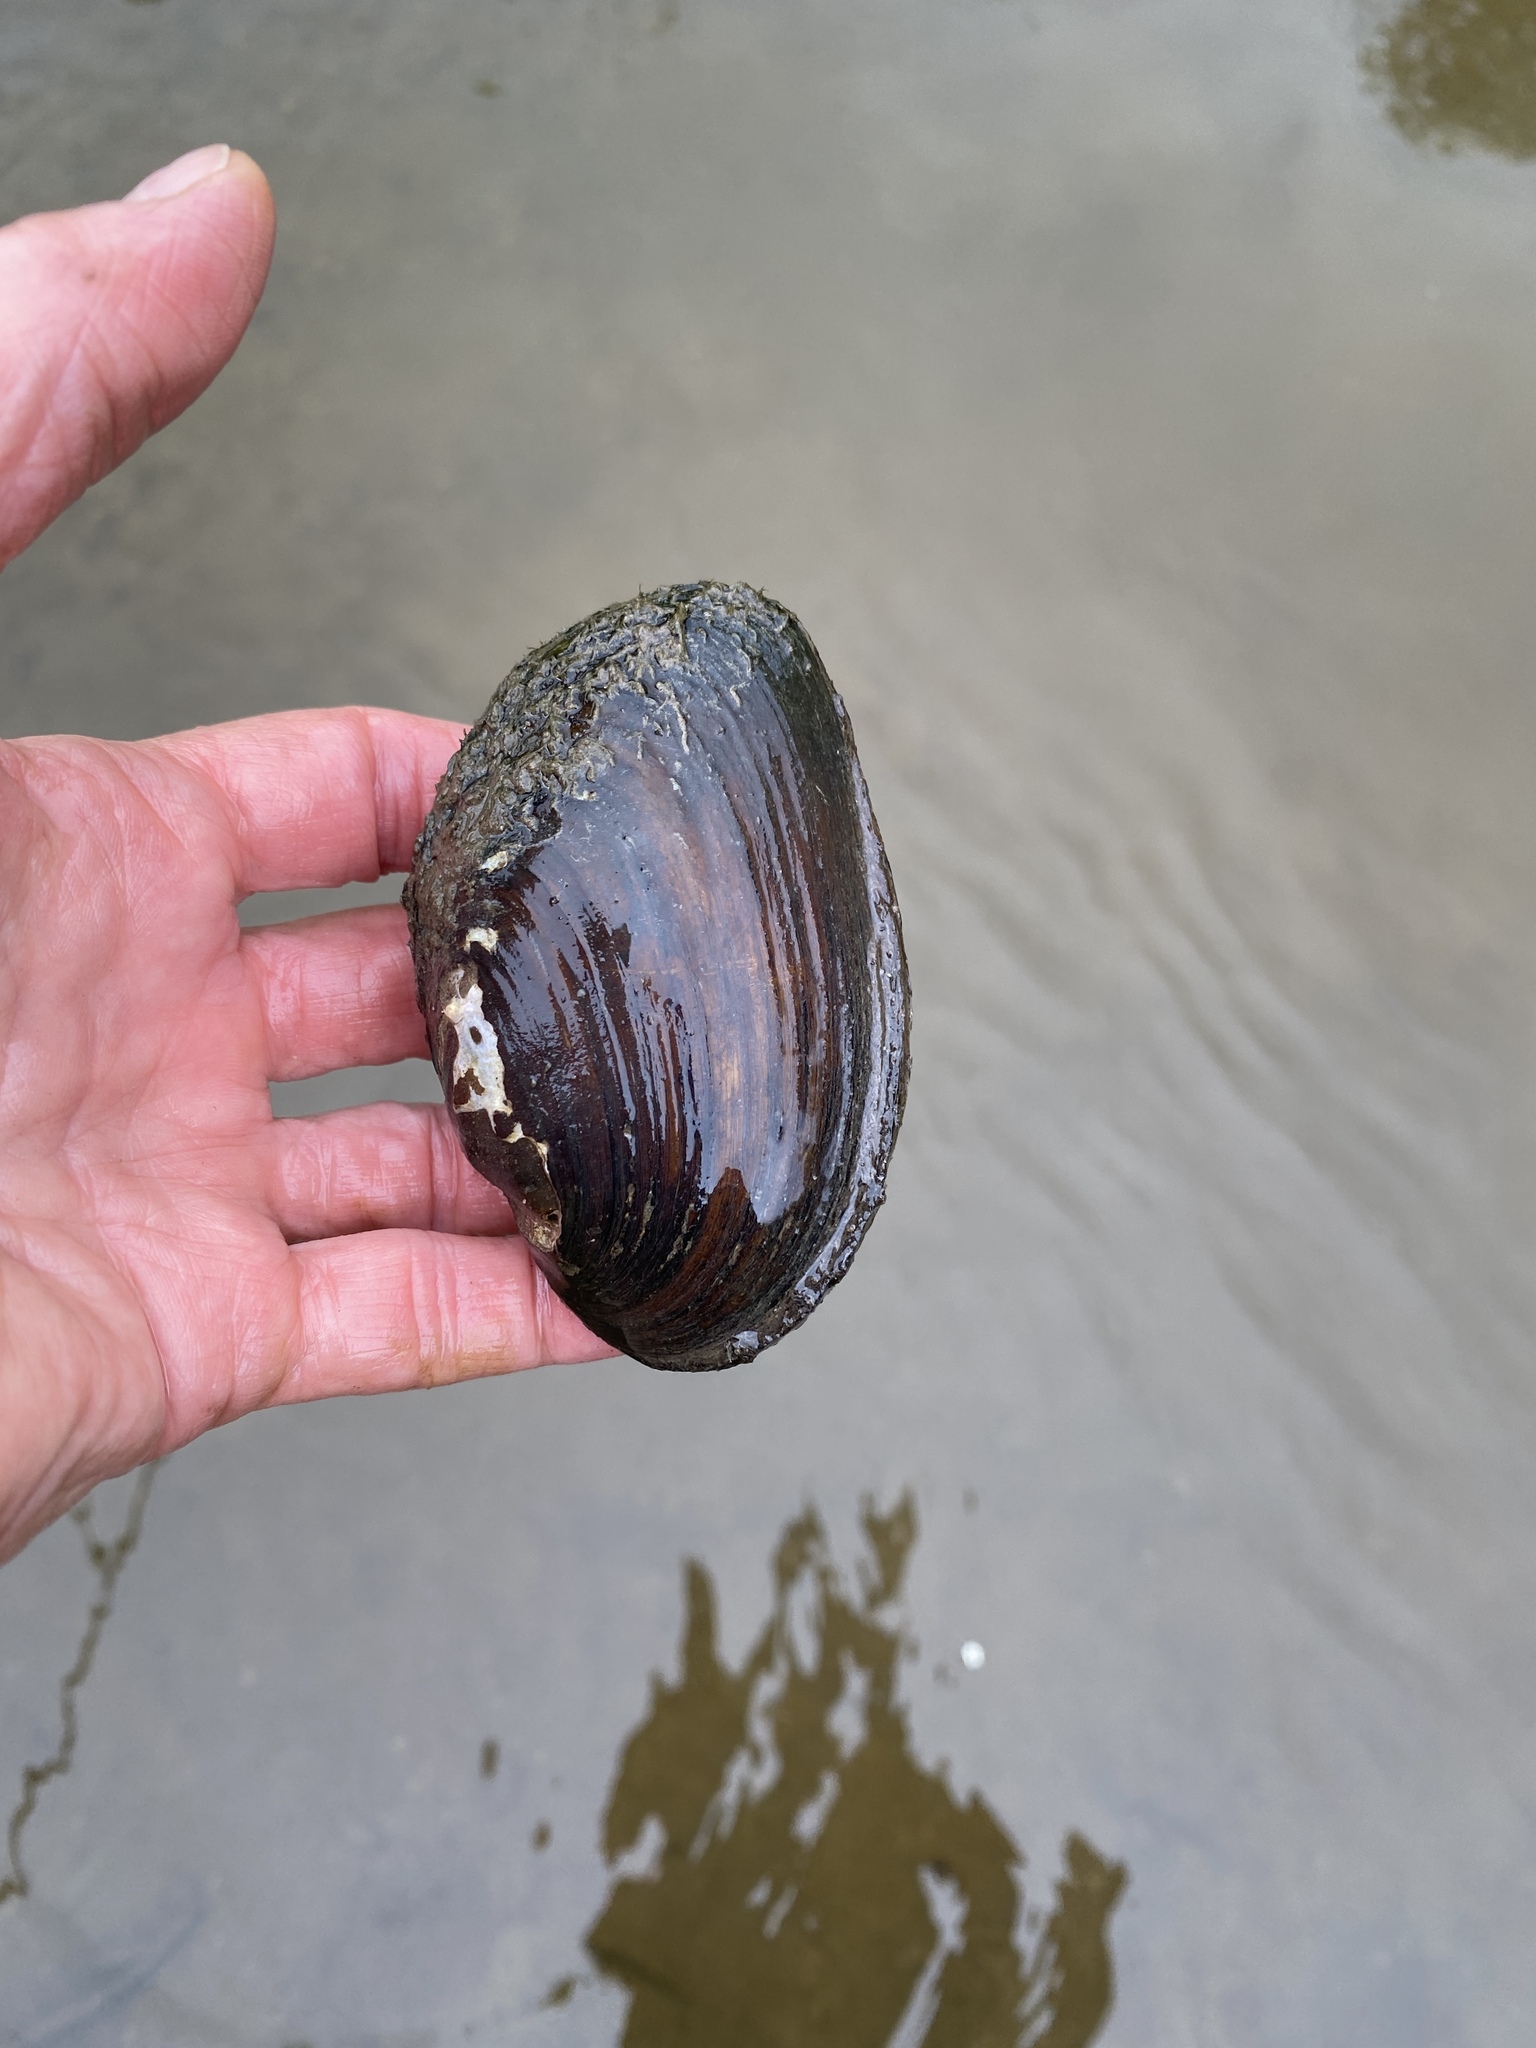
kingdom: Animalia
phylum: Mollusca
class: Bivalvia
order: Unionida
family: Unionidae
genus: Elliptio
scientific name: Elliptio complanata
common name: Eastern elliptio
